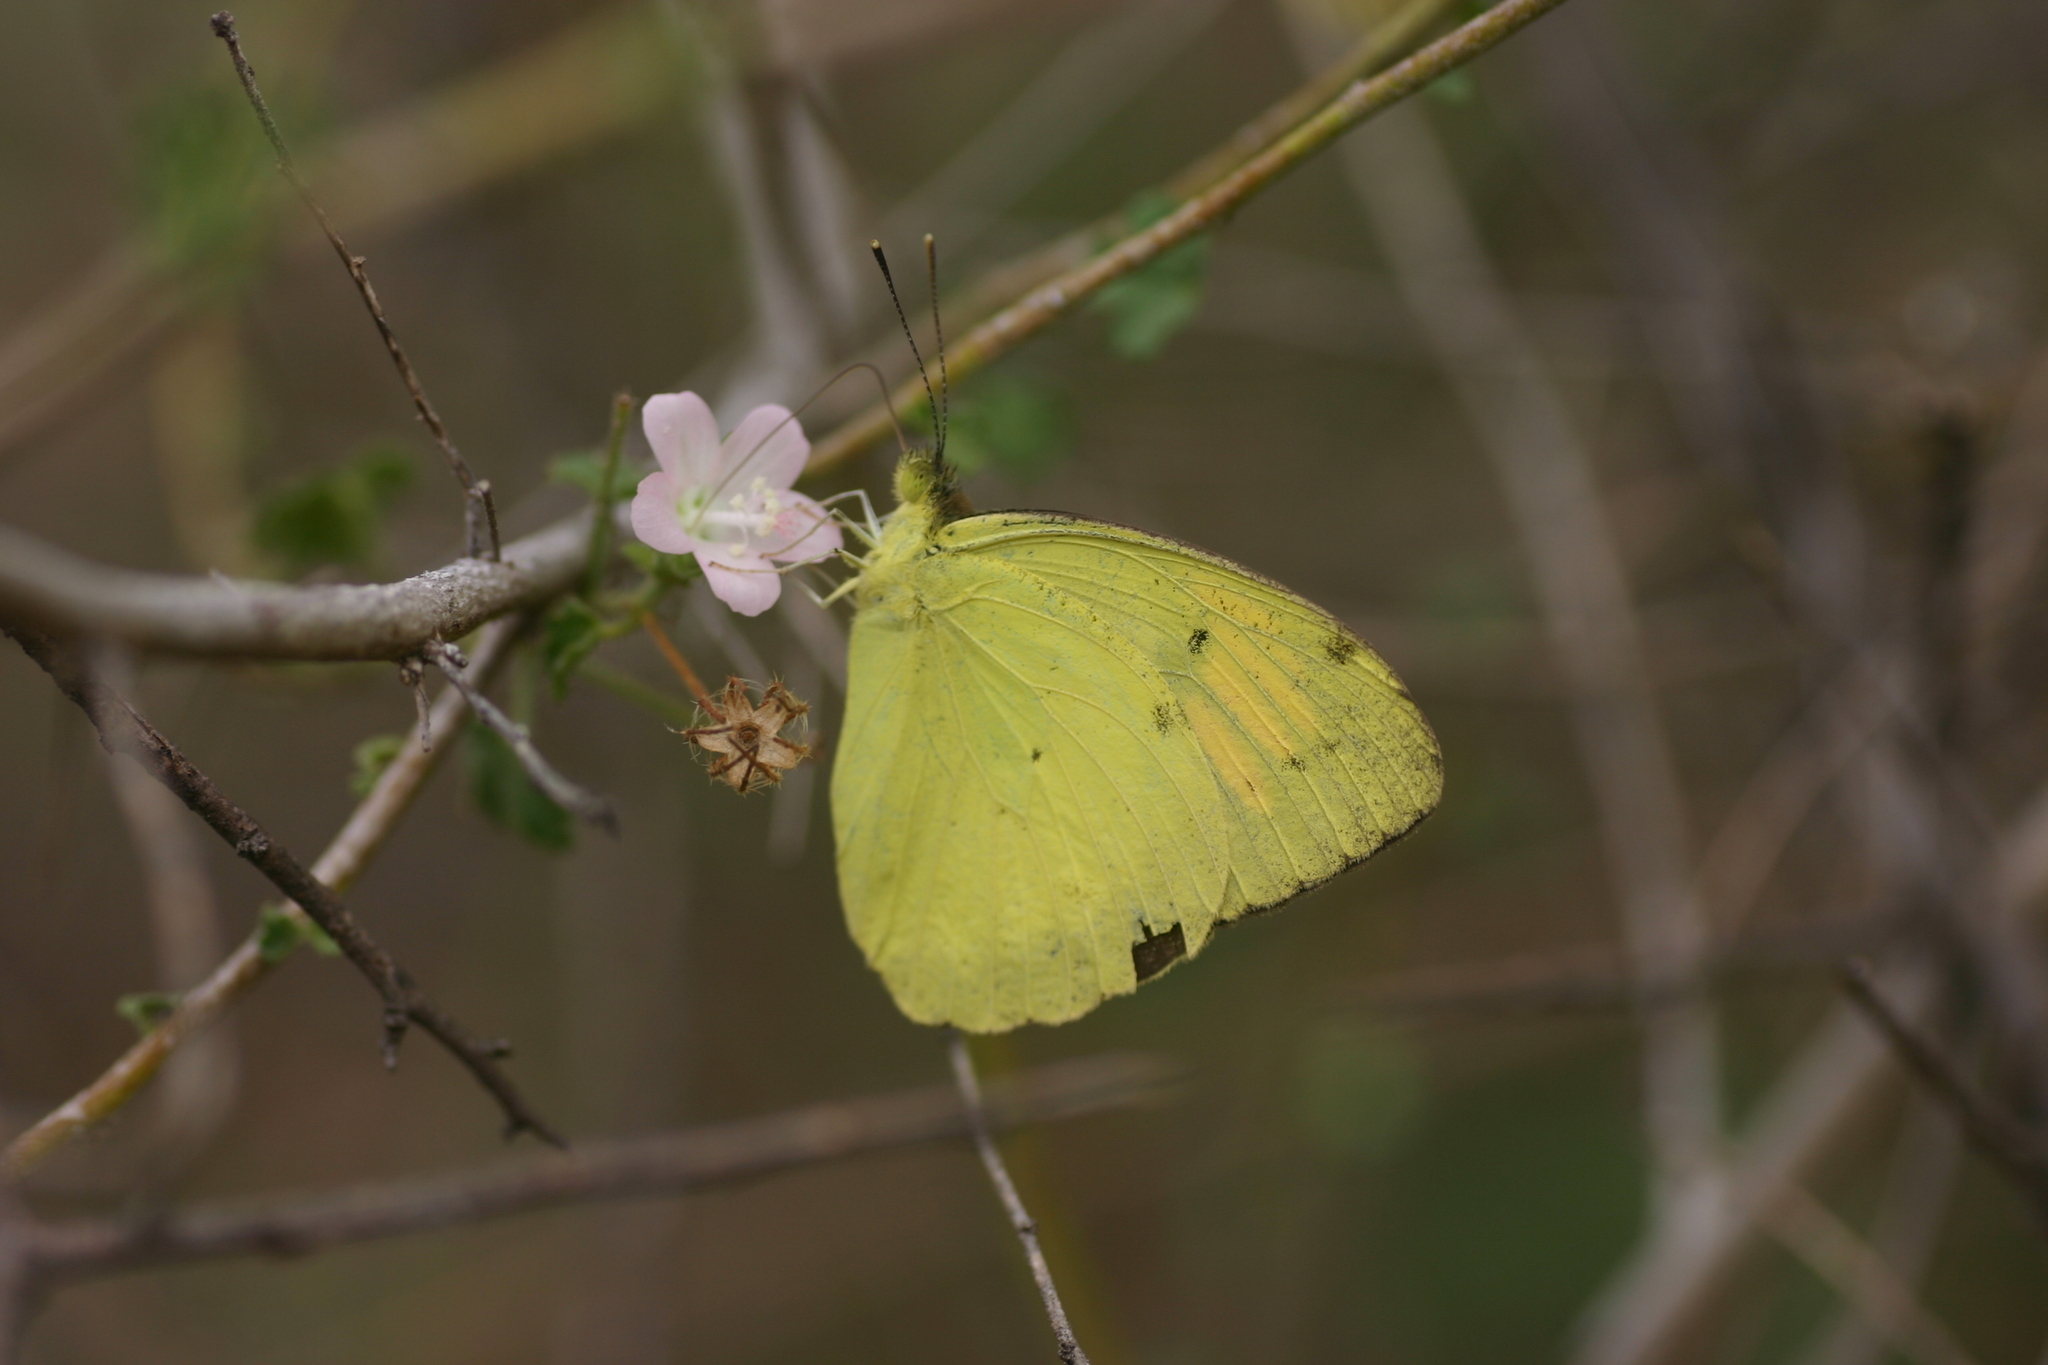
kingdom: Animalia
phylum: Arthropoda
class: Insecta
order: Lepidoptera
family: Pieridae
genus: Ixias
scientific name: Ixias pyrene
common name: Yellow orange tip
